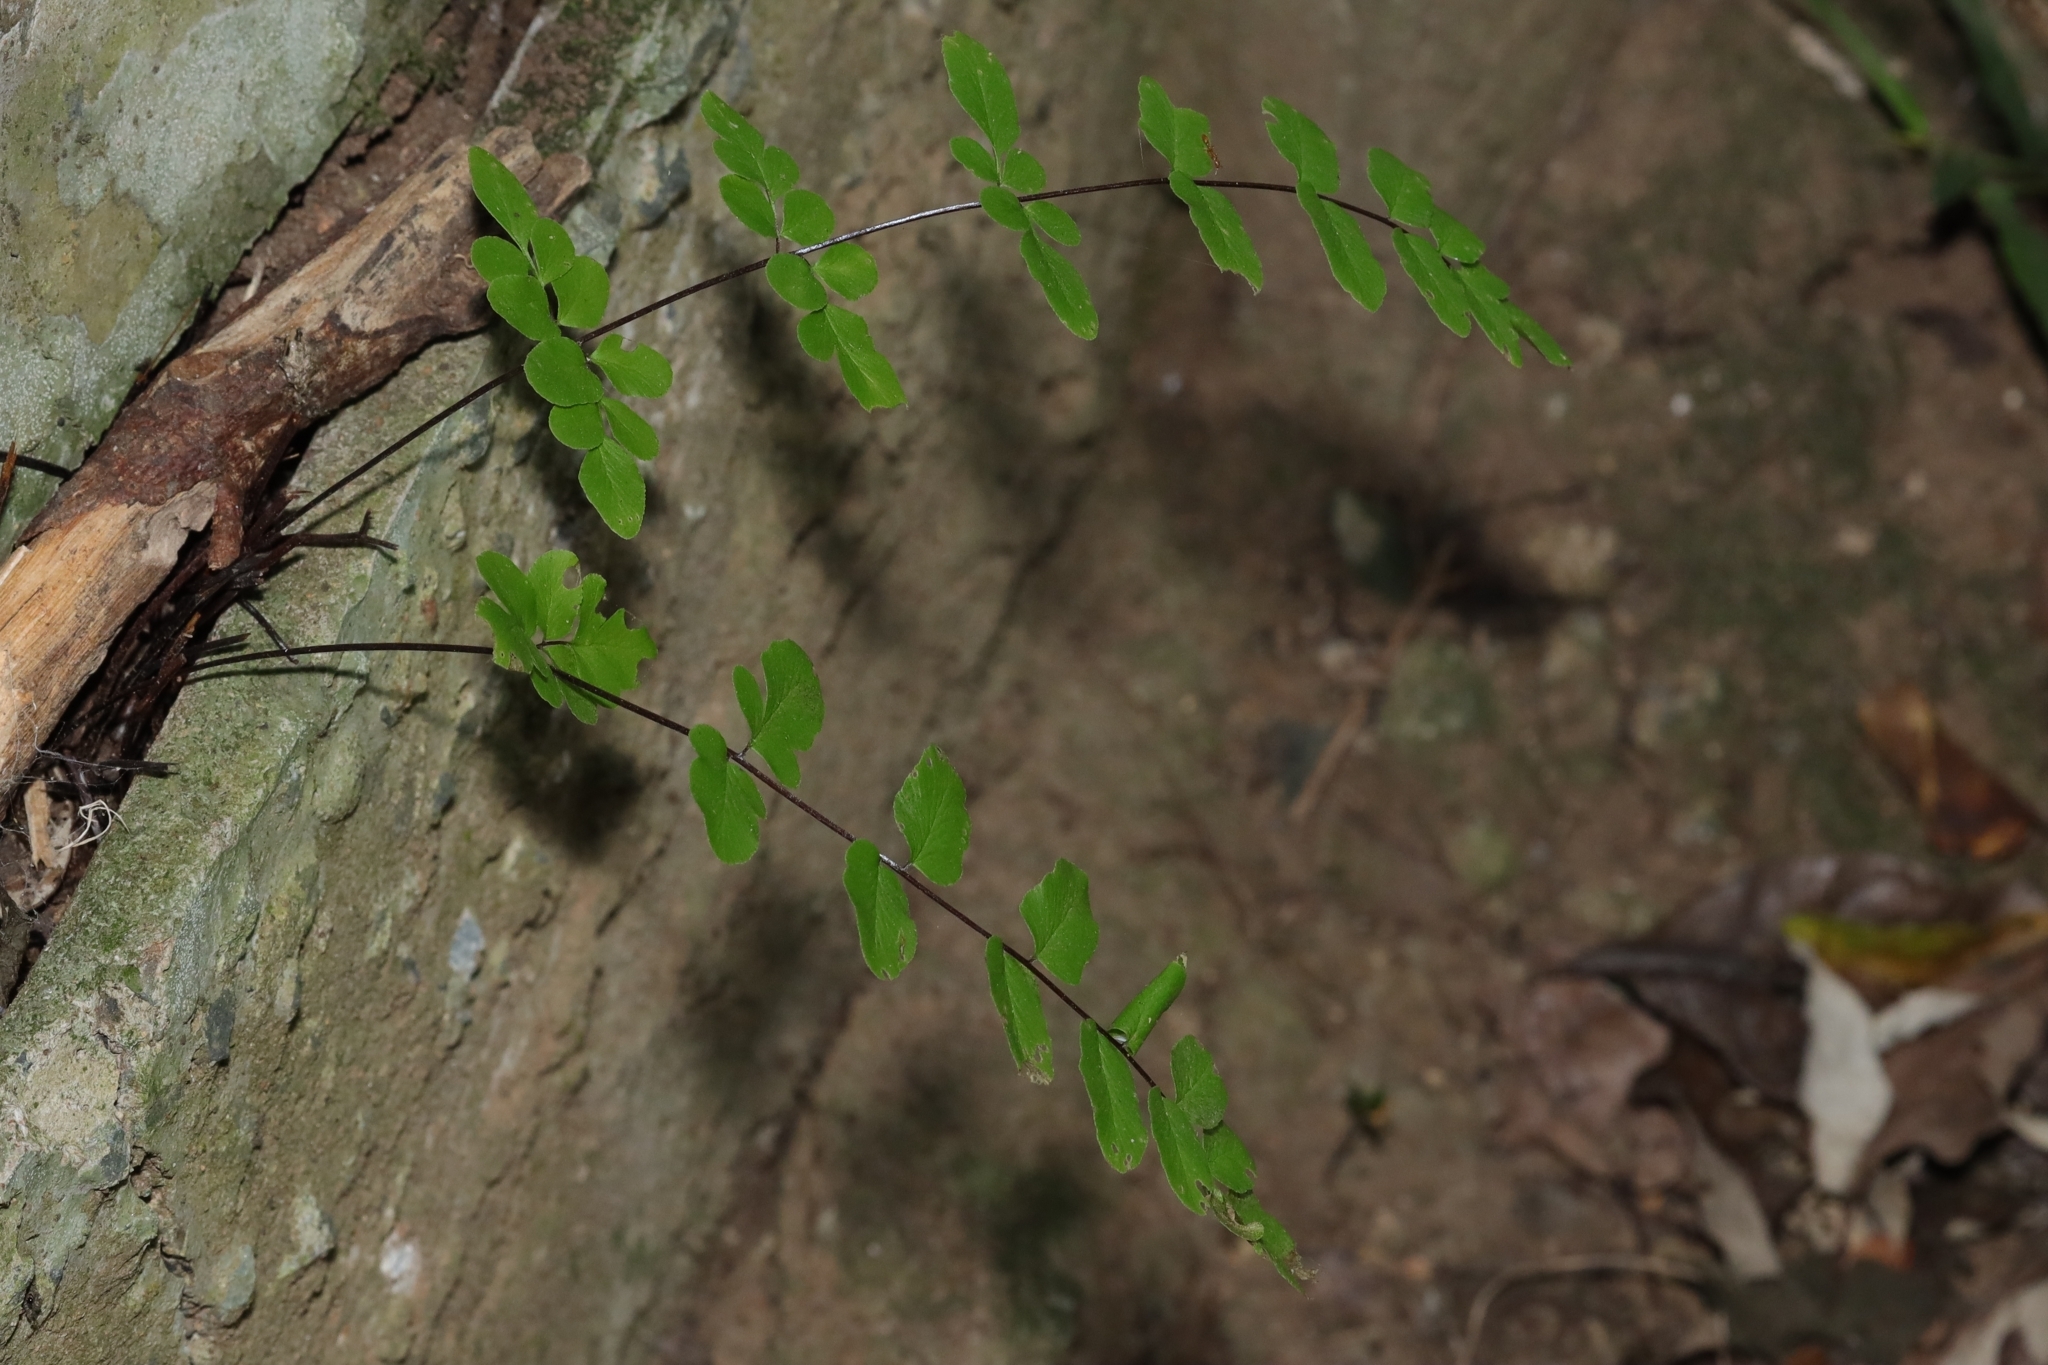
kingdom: Plantae
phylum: Tracheophyta
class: Polypodiopsida
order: Polypodiales
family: Pteridaceae
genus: Cheilanthes
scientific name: Cheilanthes viridis
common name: Green cliffbrake
